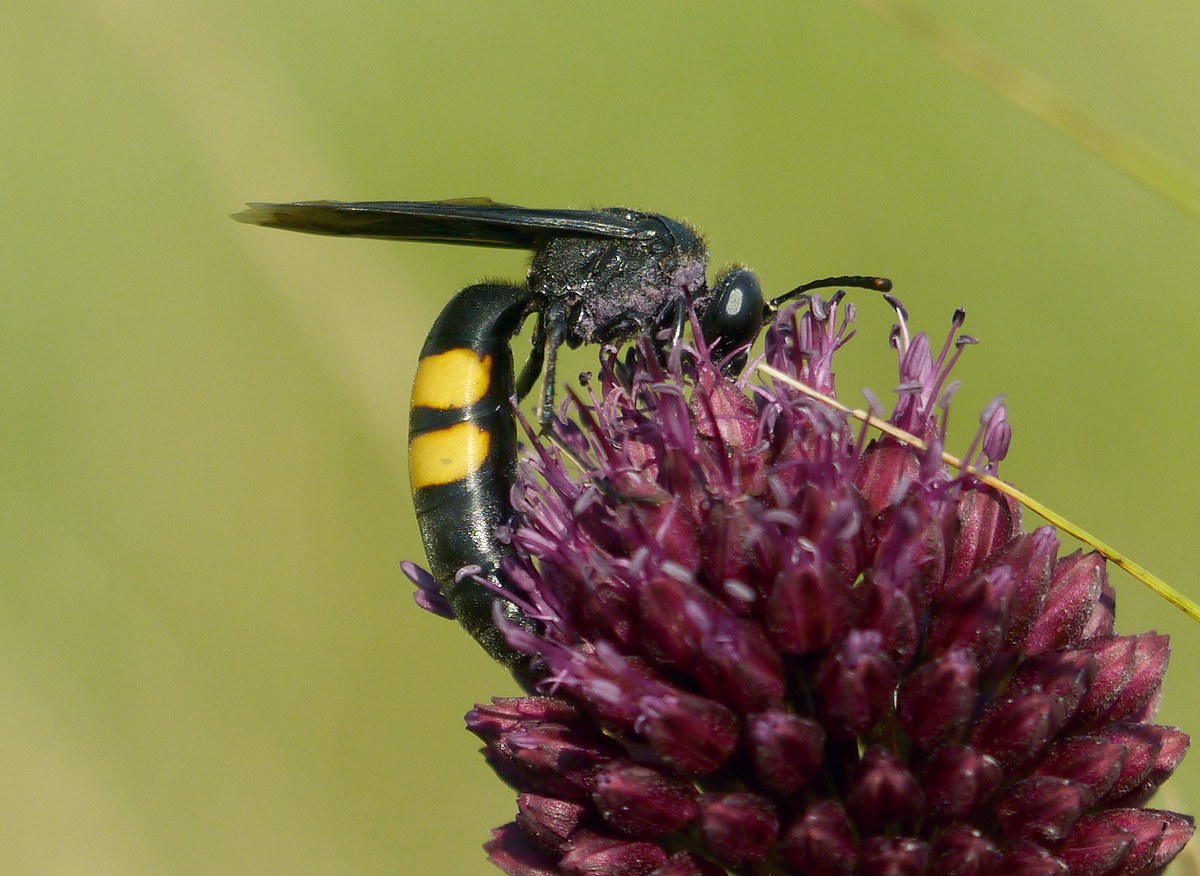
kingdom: Animalia
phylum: Arthropoda
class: Insecta
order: Hymenoptera
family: Crabronidae
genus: Stizoides
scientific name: Stizoides tridentatus
